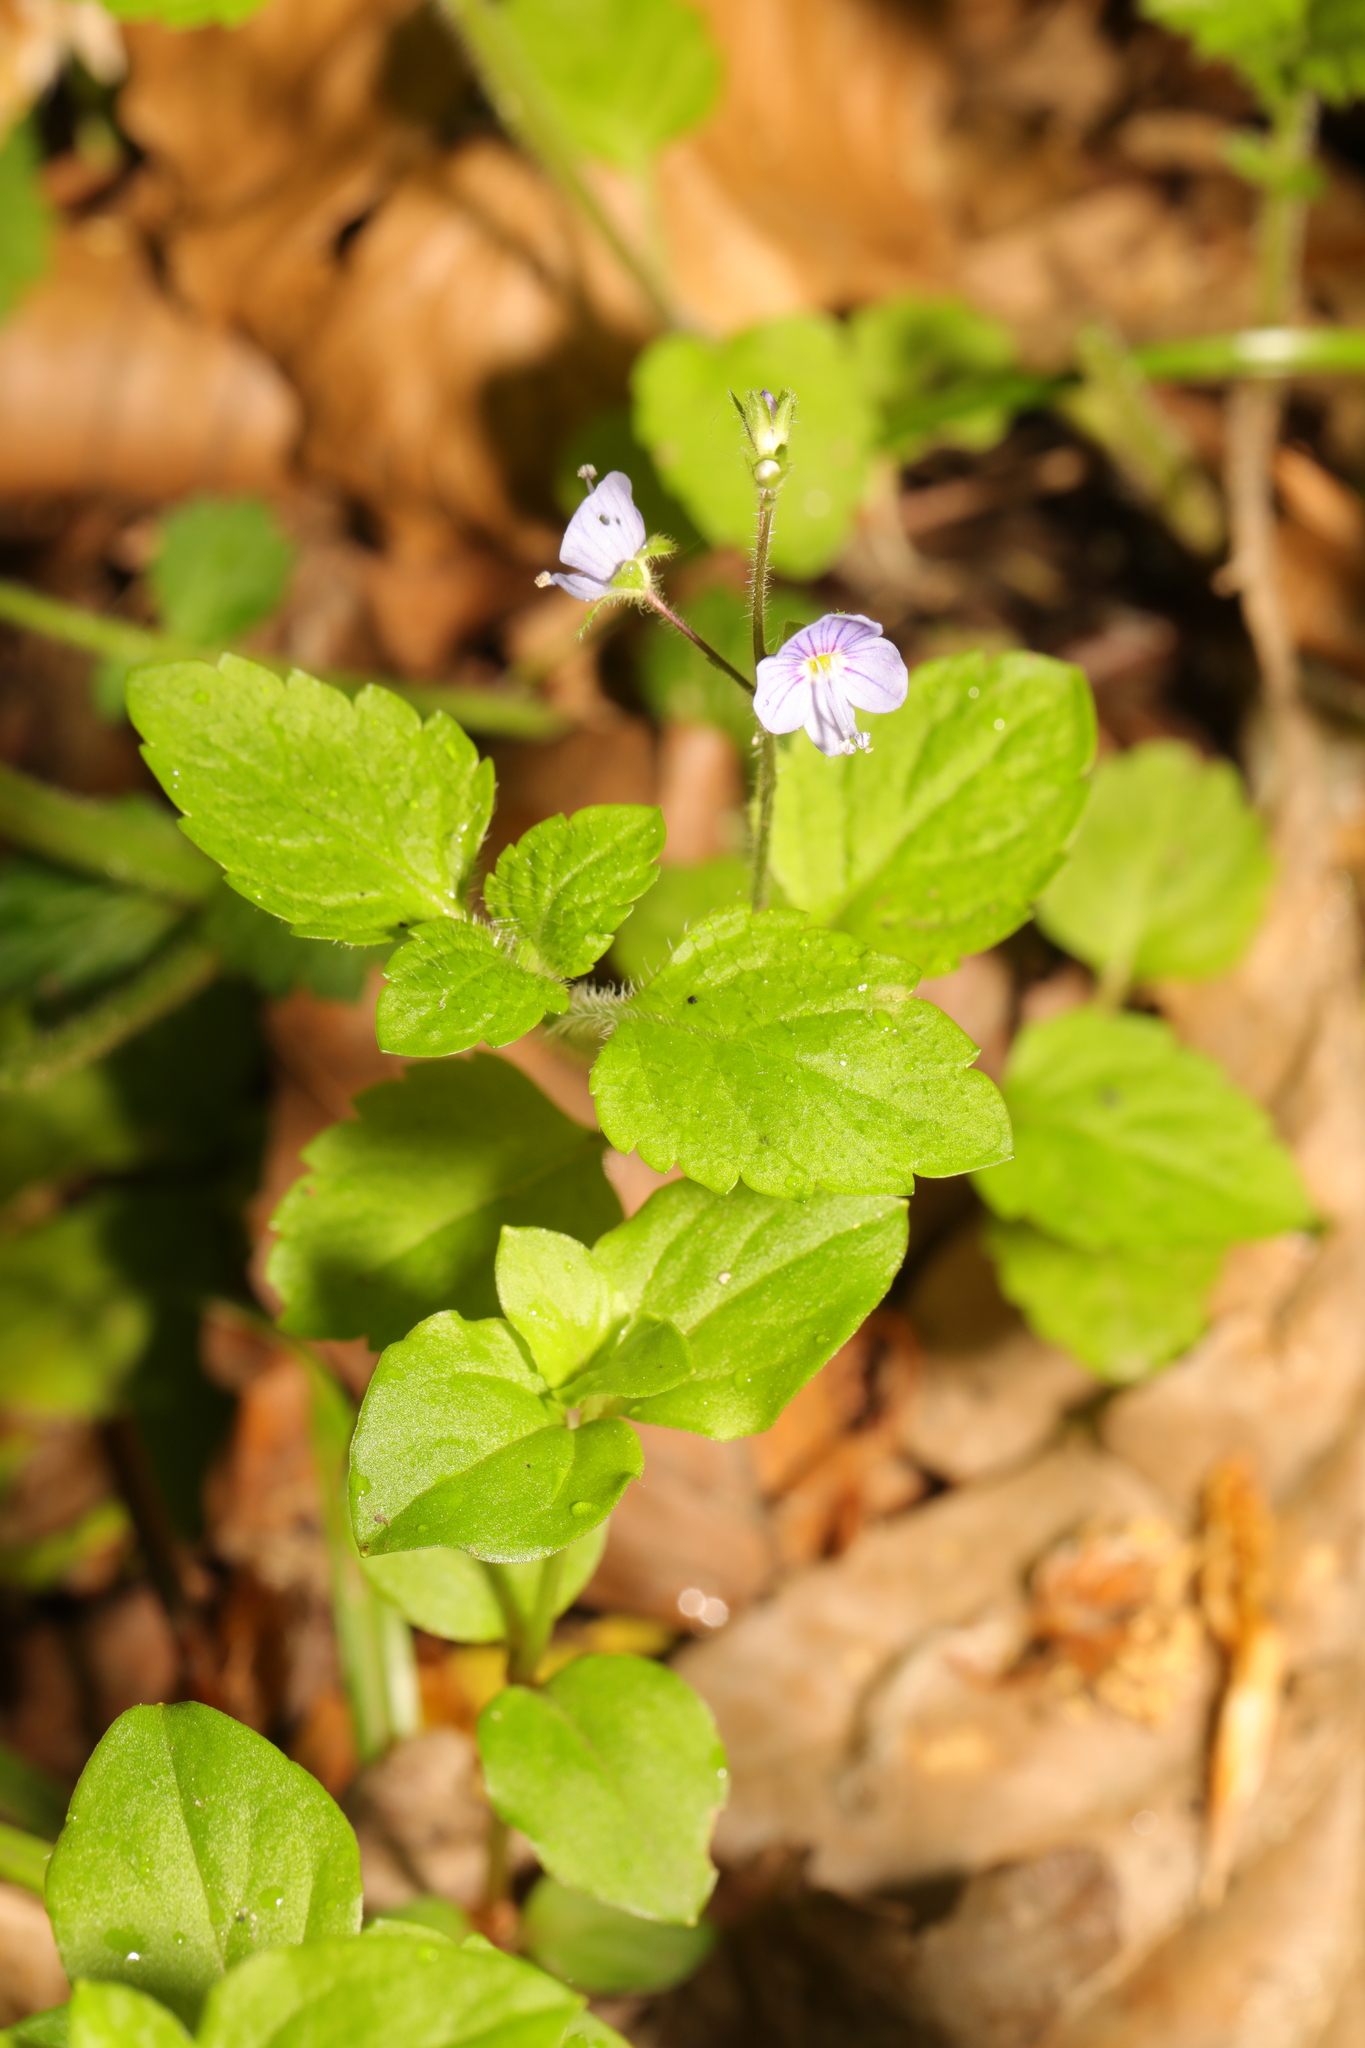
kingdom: Plantae
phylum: Tracheophyta
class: Magnoliopsida
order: Lamiales
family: Plantaginaceae
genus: Veronica
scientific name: Veronica montana
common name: Wood speedwell
